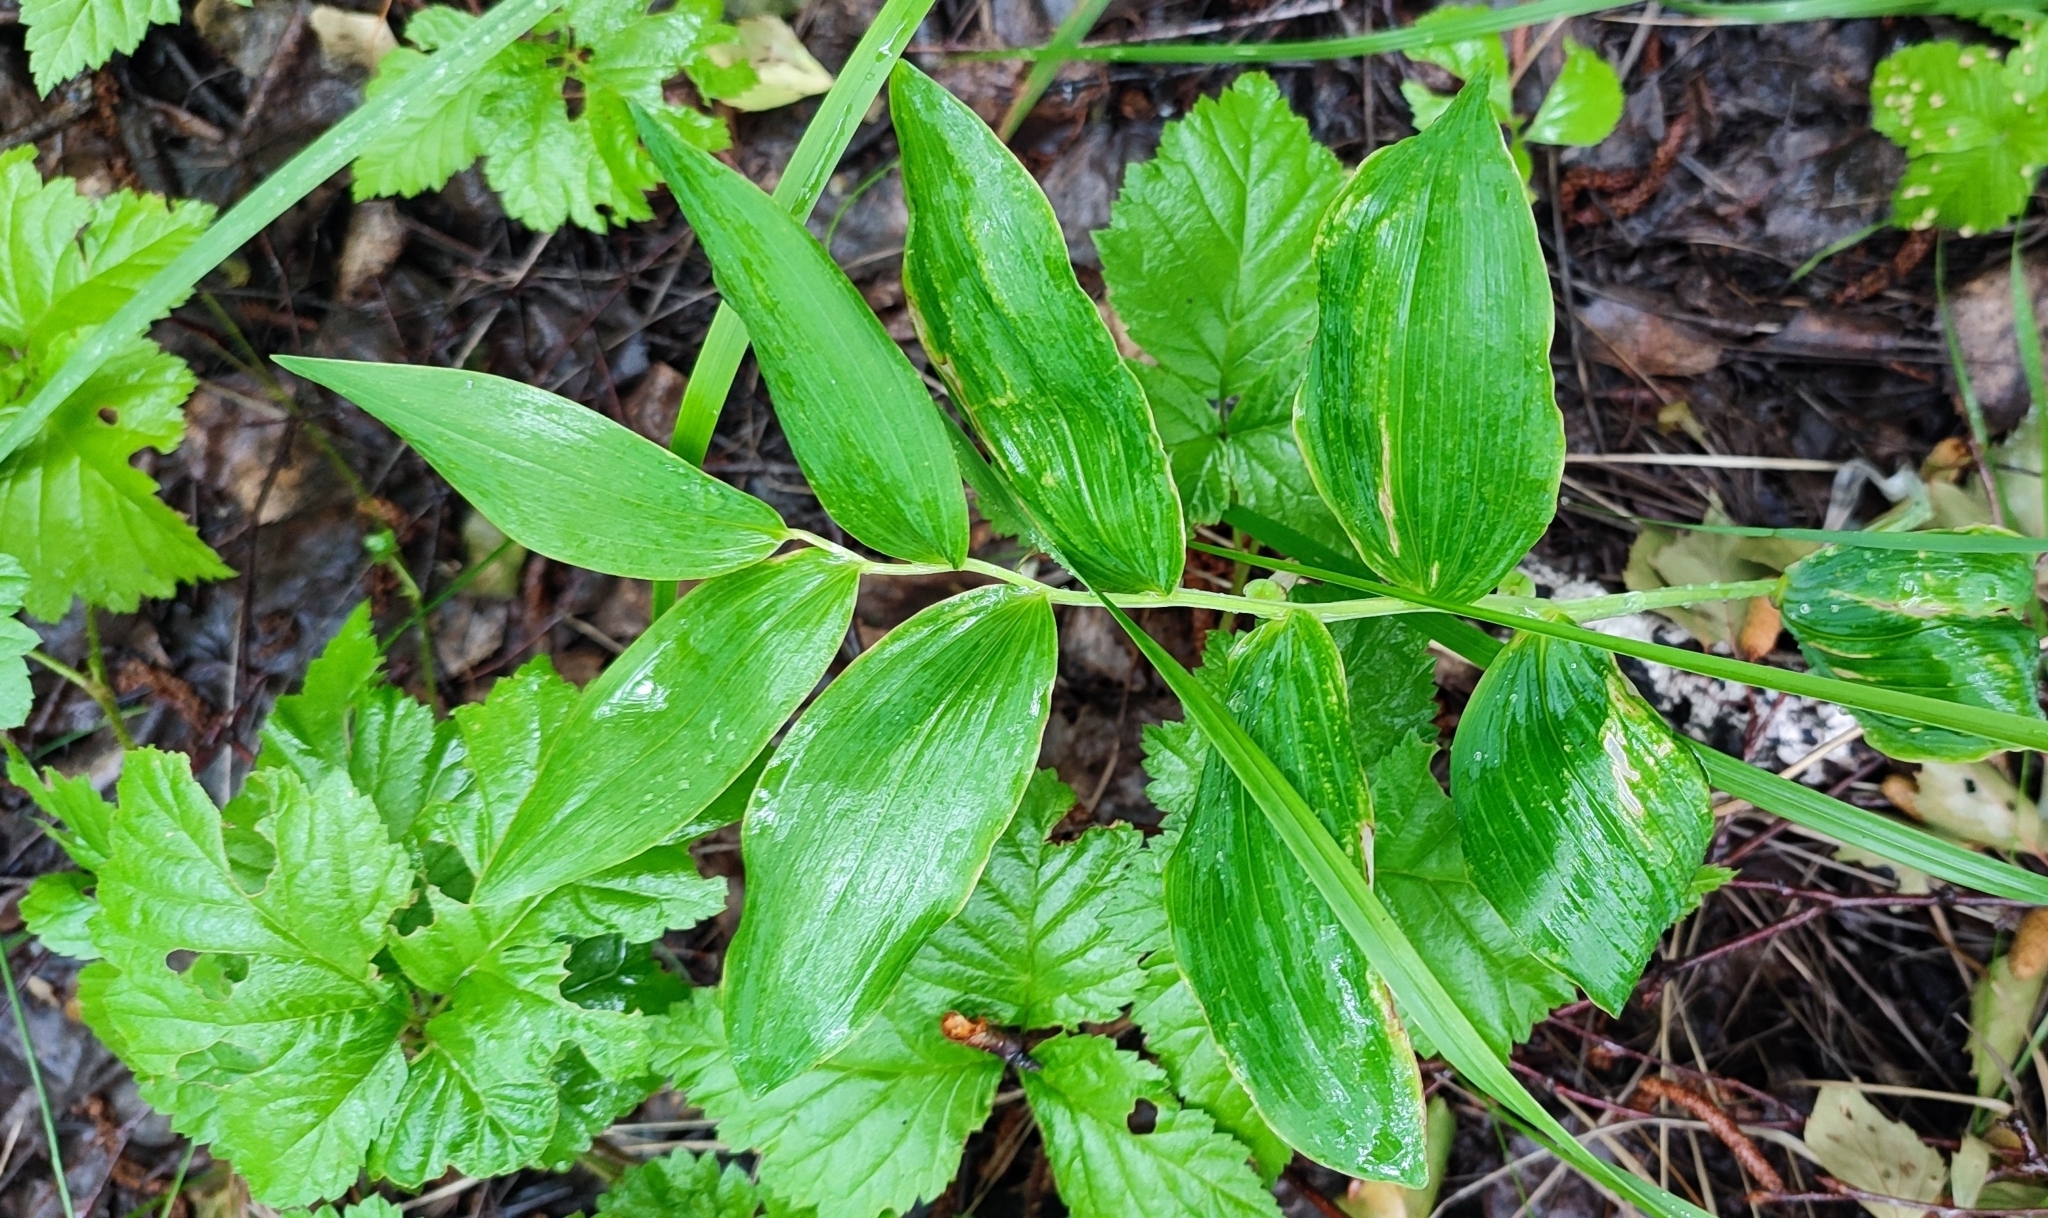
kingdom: Plantae
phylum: Tracheophyta
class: Liliopsida
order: Asparagales
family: Asparagaceae
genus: Polygonatum
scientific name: Polygonatum odoratum
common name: Angular solomon's-seal
